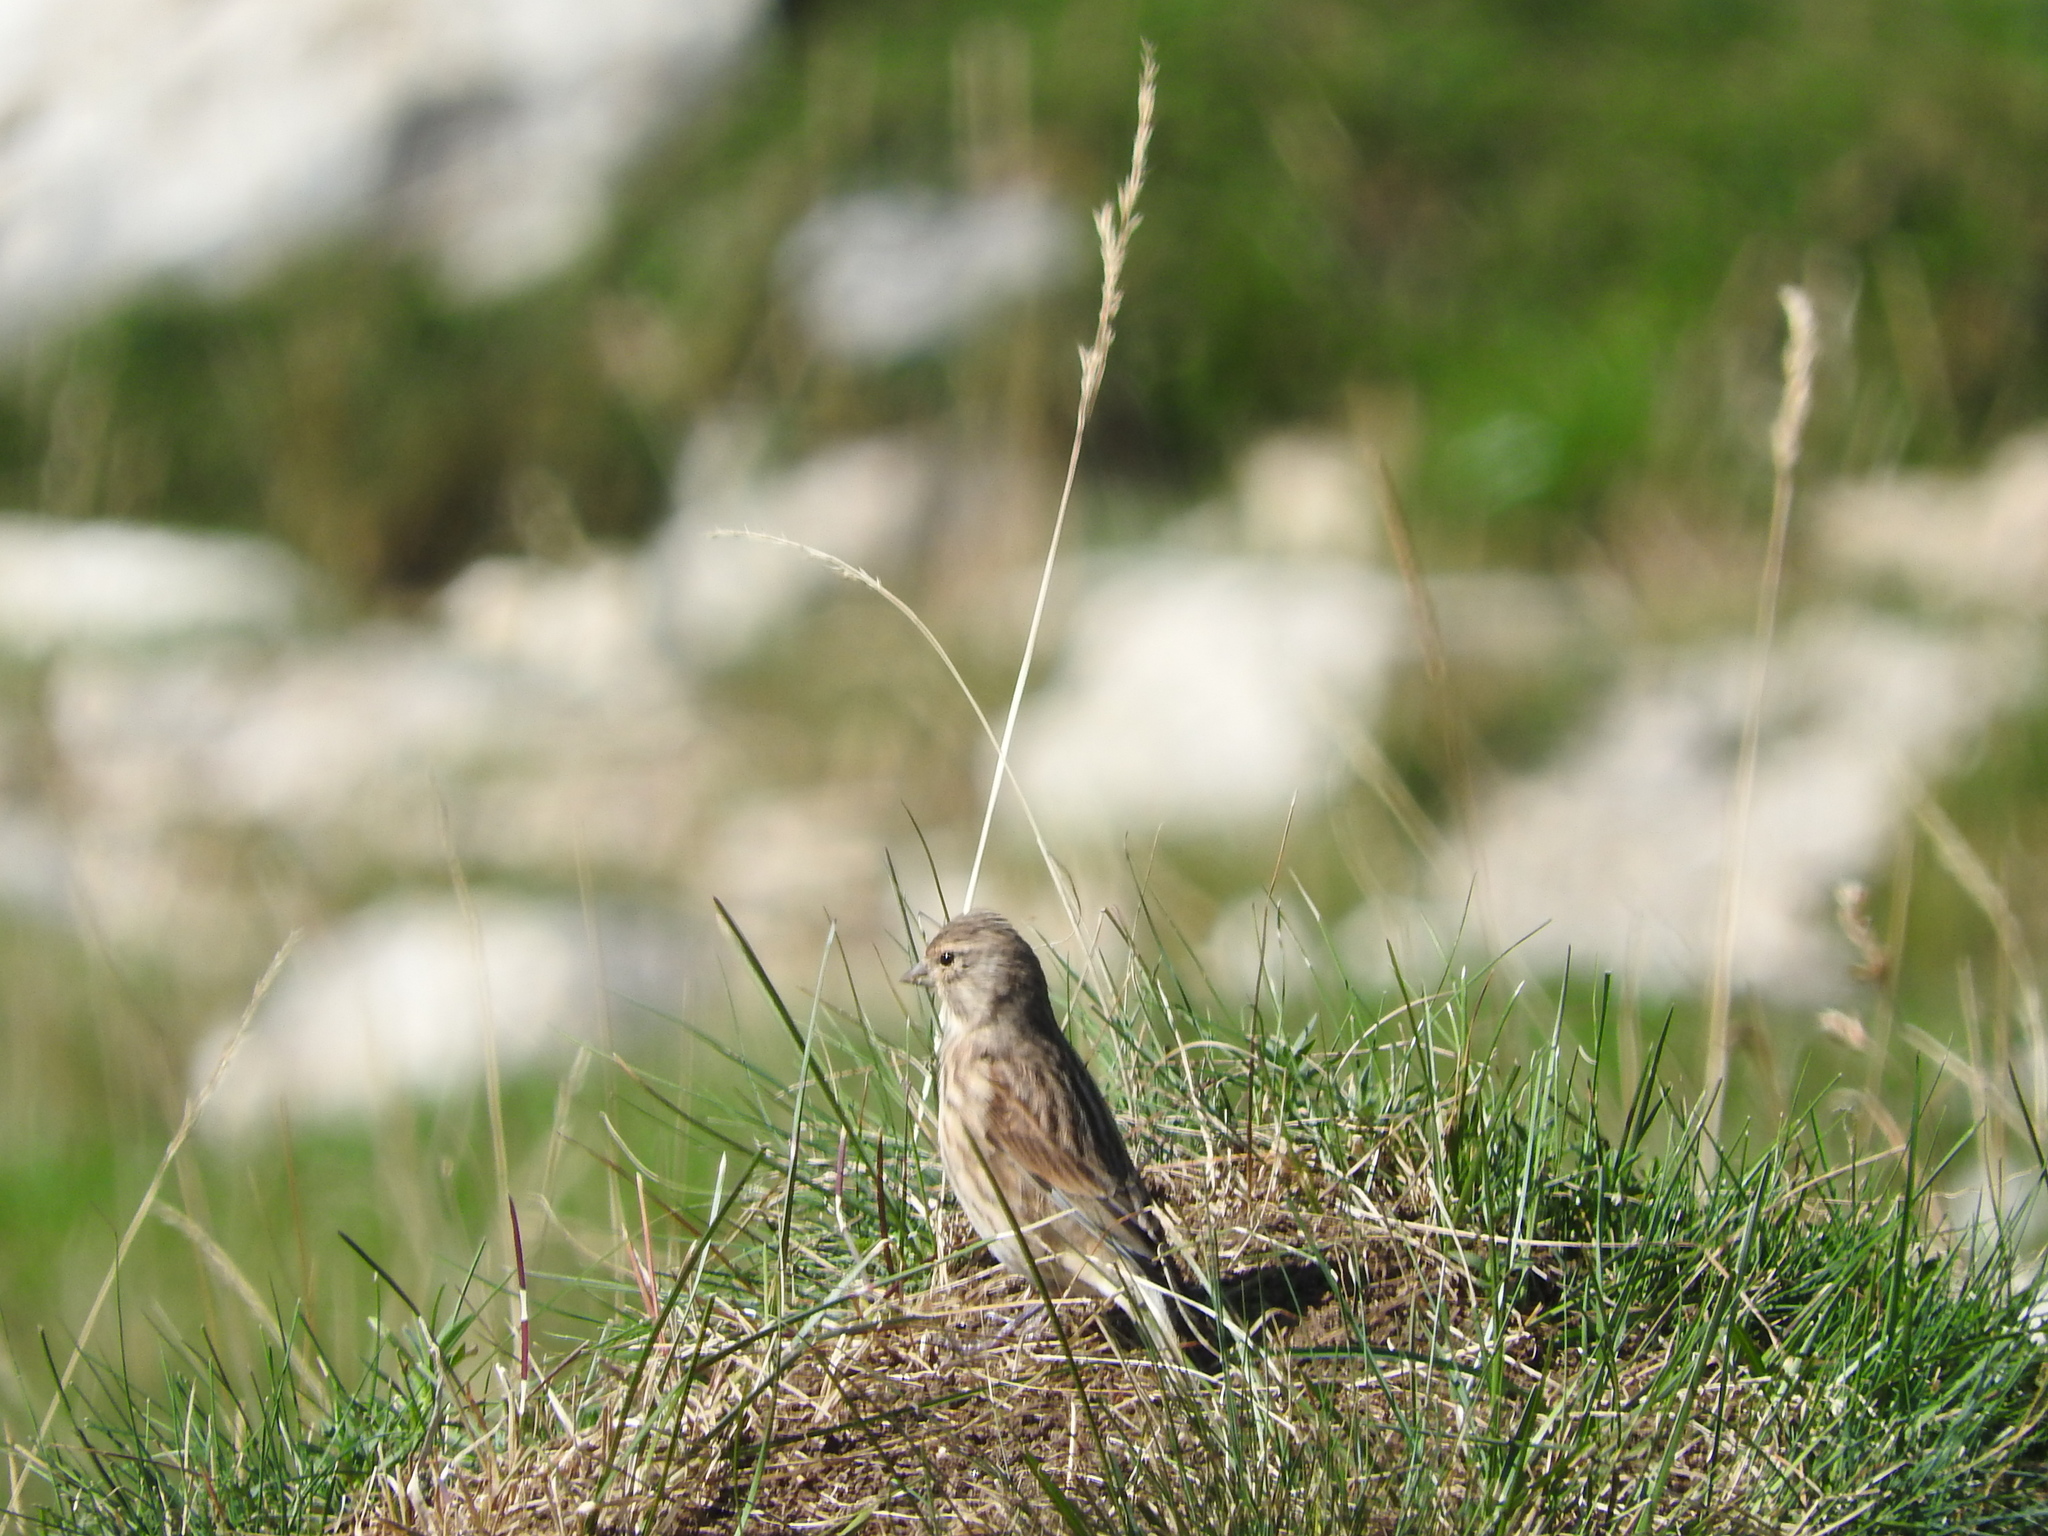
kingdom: Animalia
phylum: Chordata
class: Aves
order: Passeriformes
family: Fringillidae
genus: Linaria
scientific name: Linaria cannabina
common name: Common linnet
